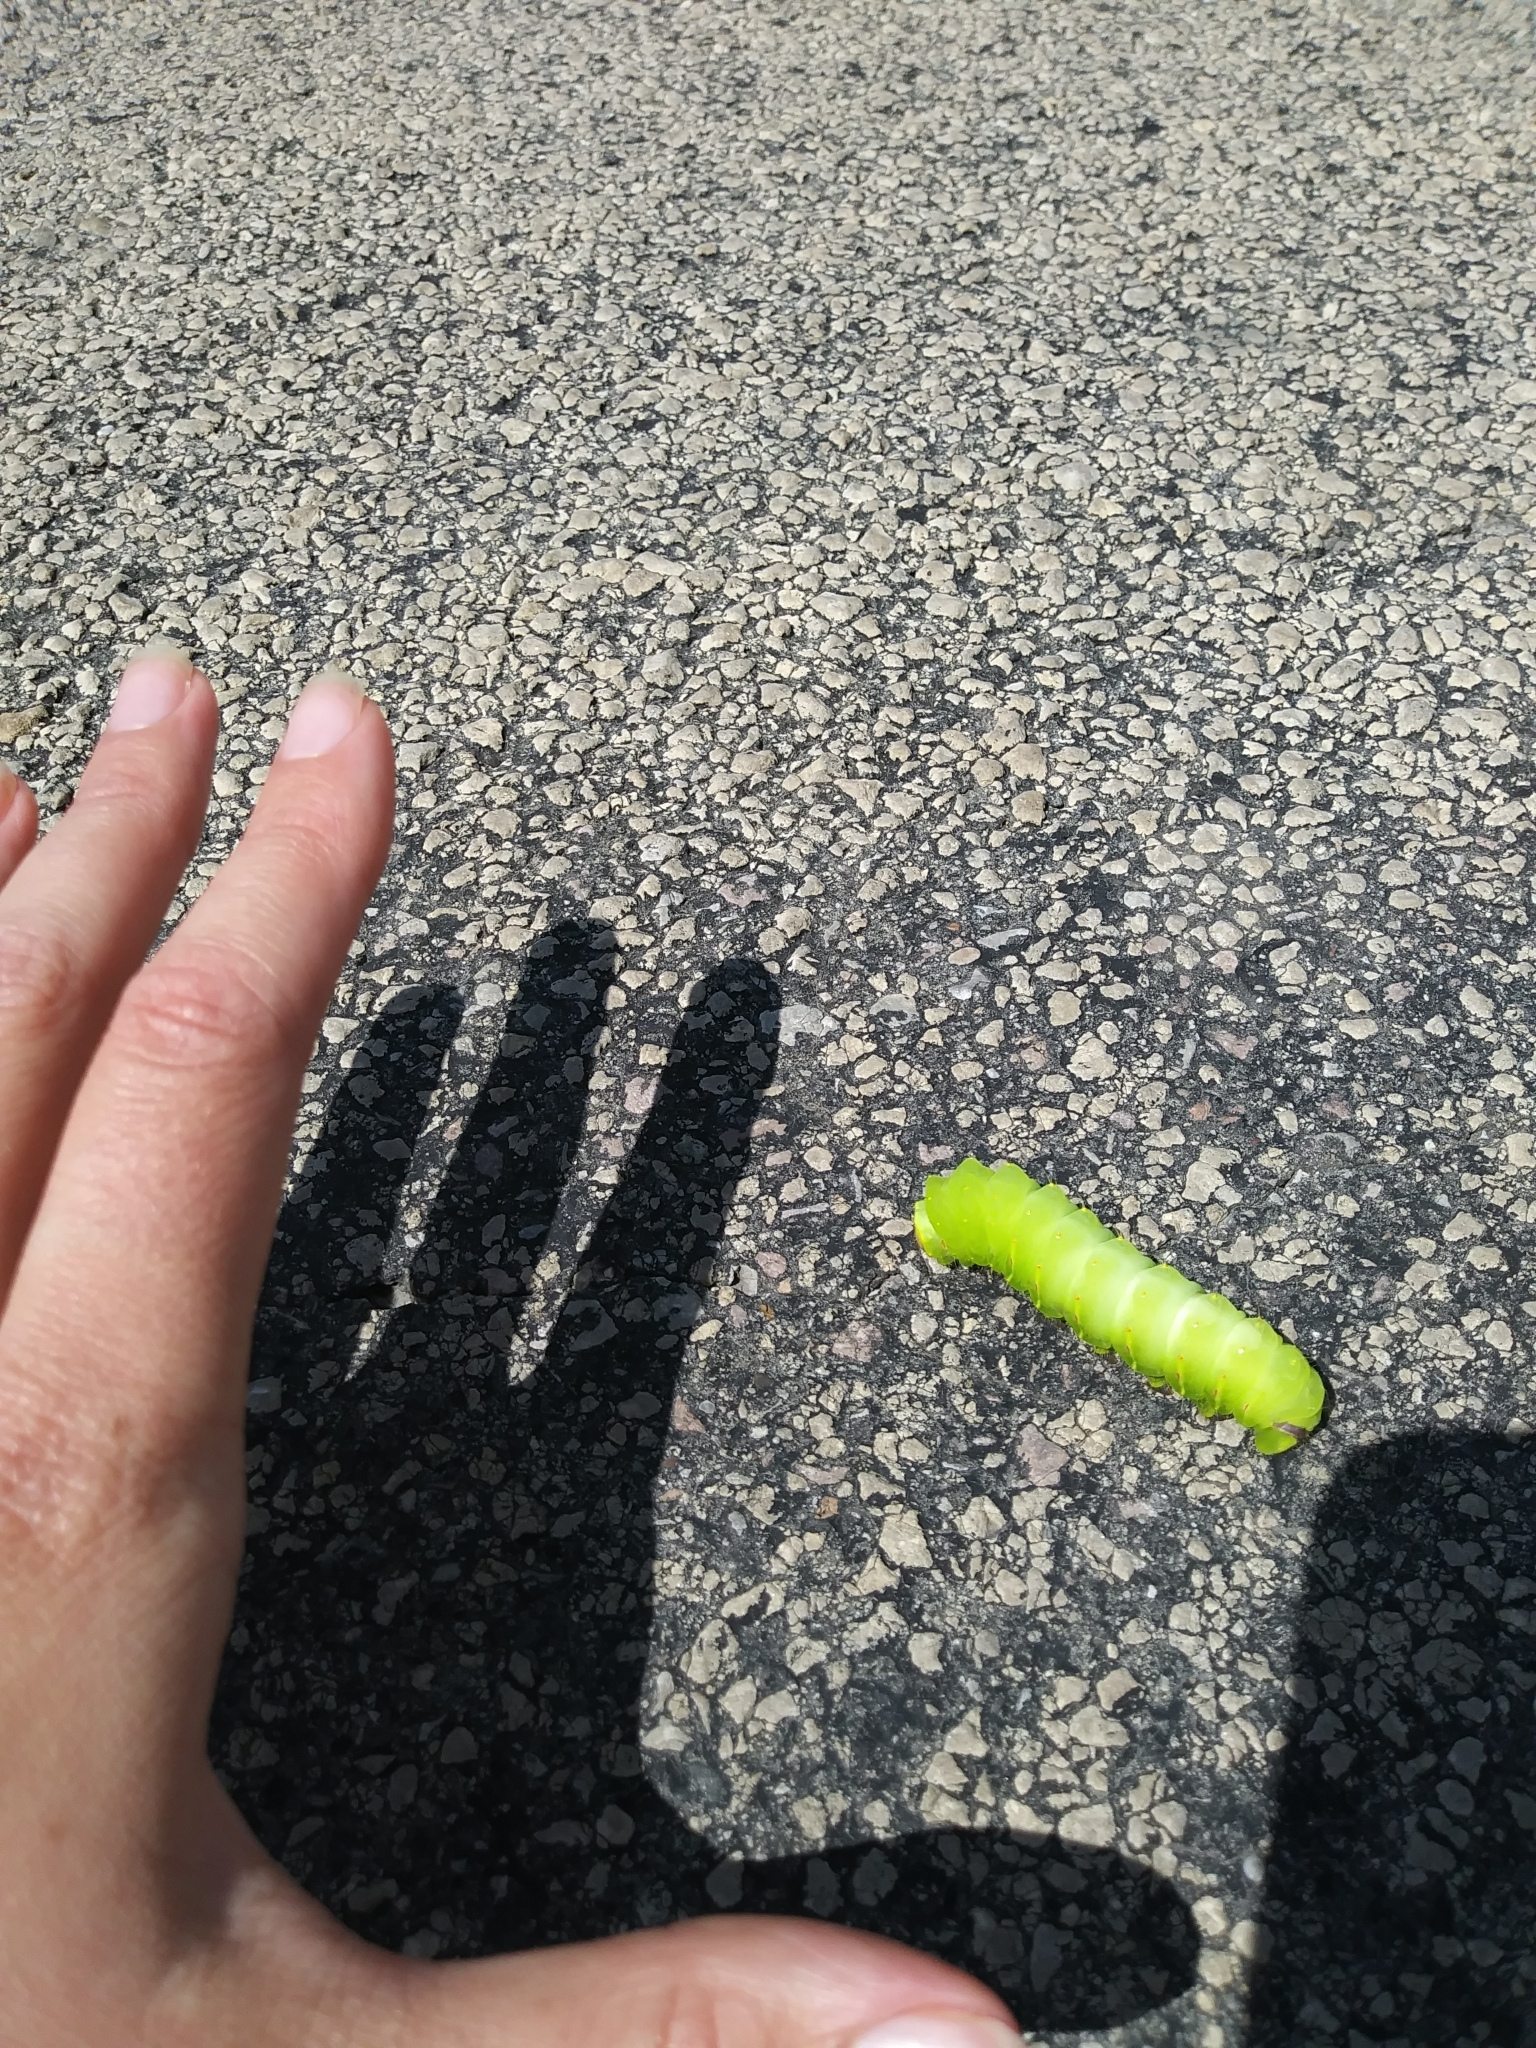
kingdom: Animalia
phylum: Arthropoda
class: Insecta
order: Lepidoptera
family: Saturniidae
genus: Antheraea
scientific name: Antheraea polyphemus
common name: Polyphemus moth
